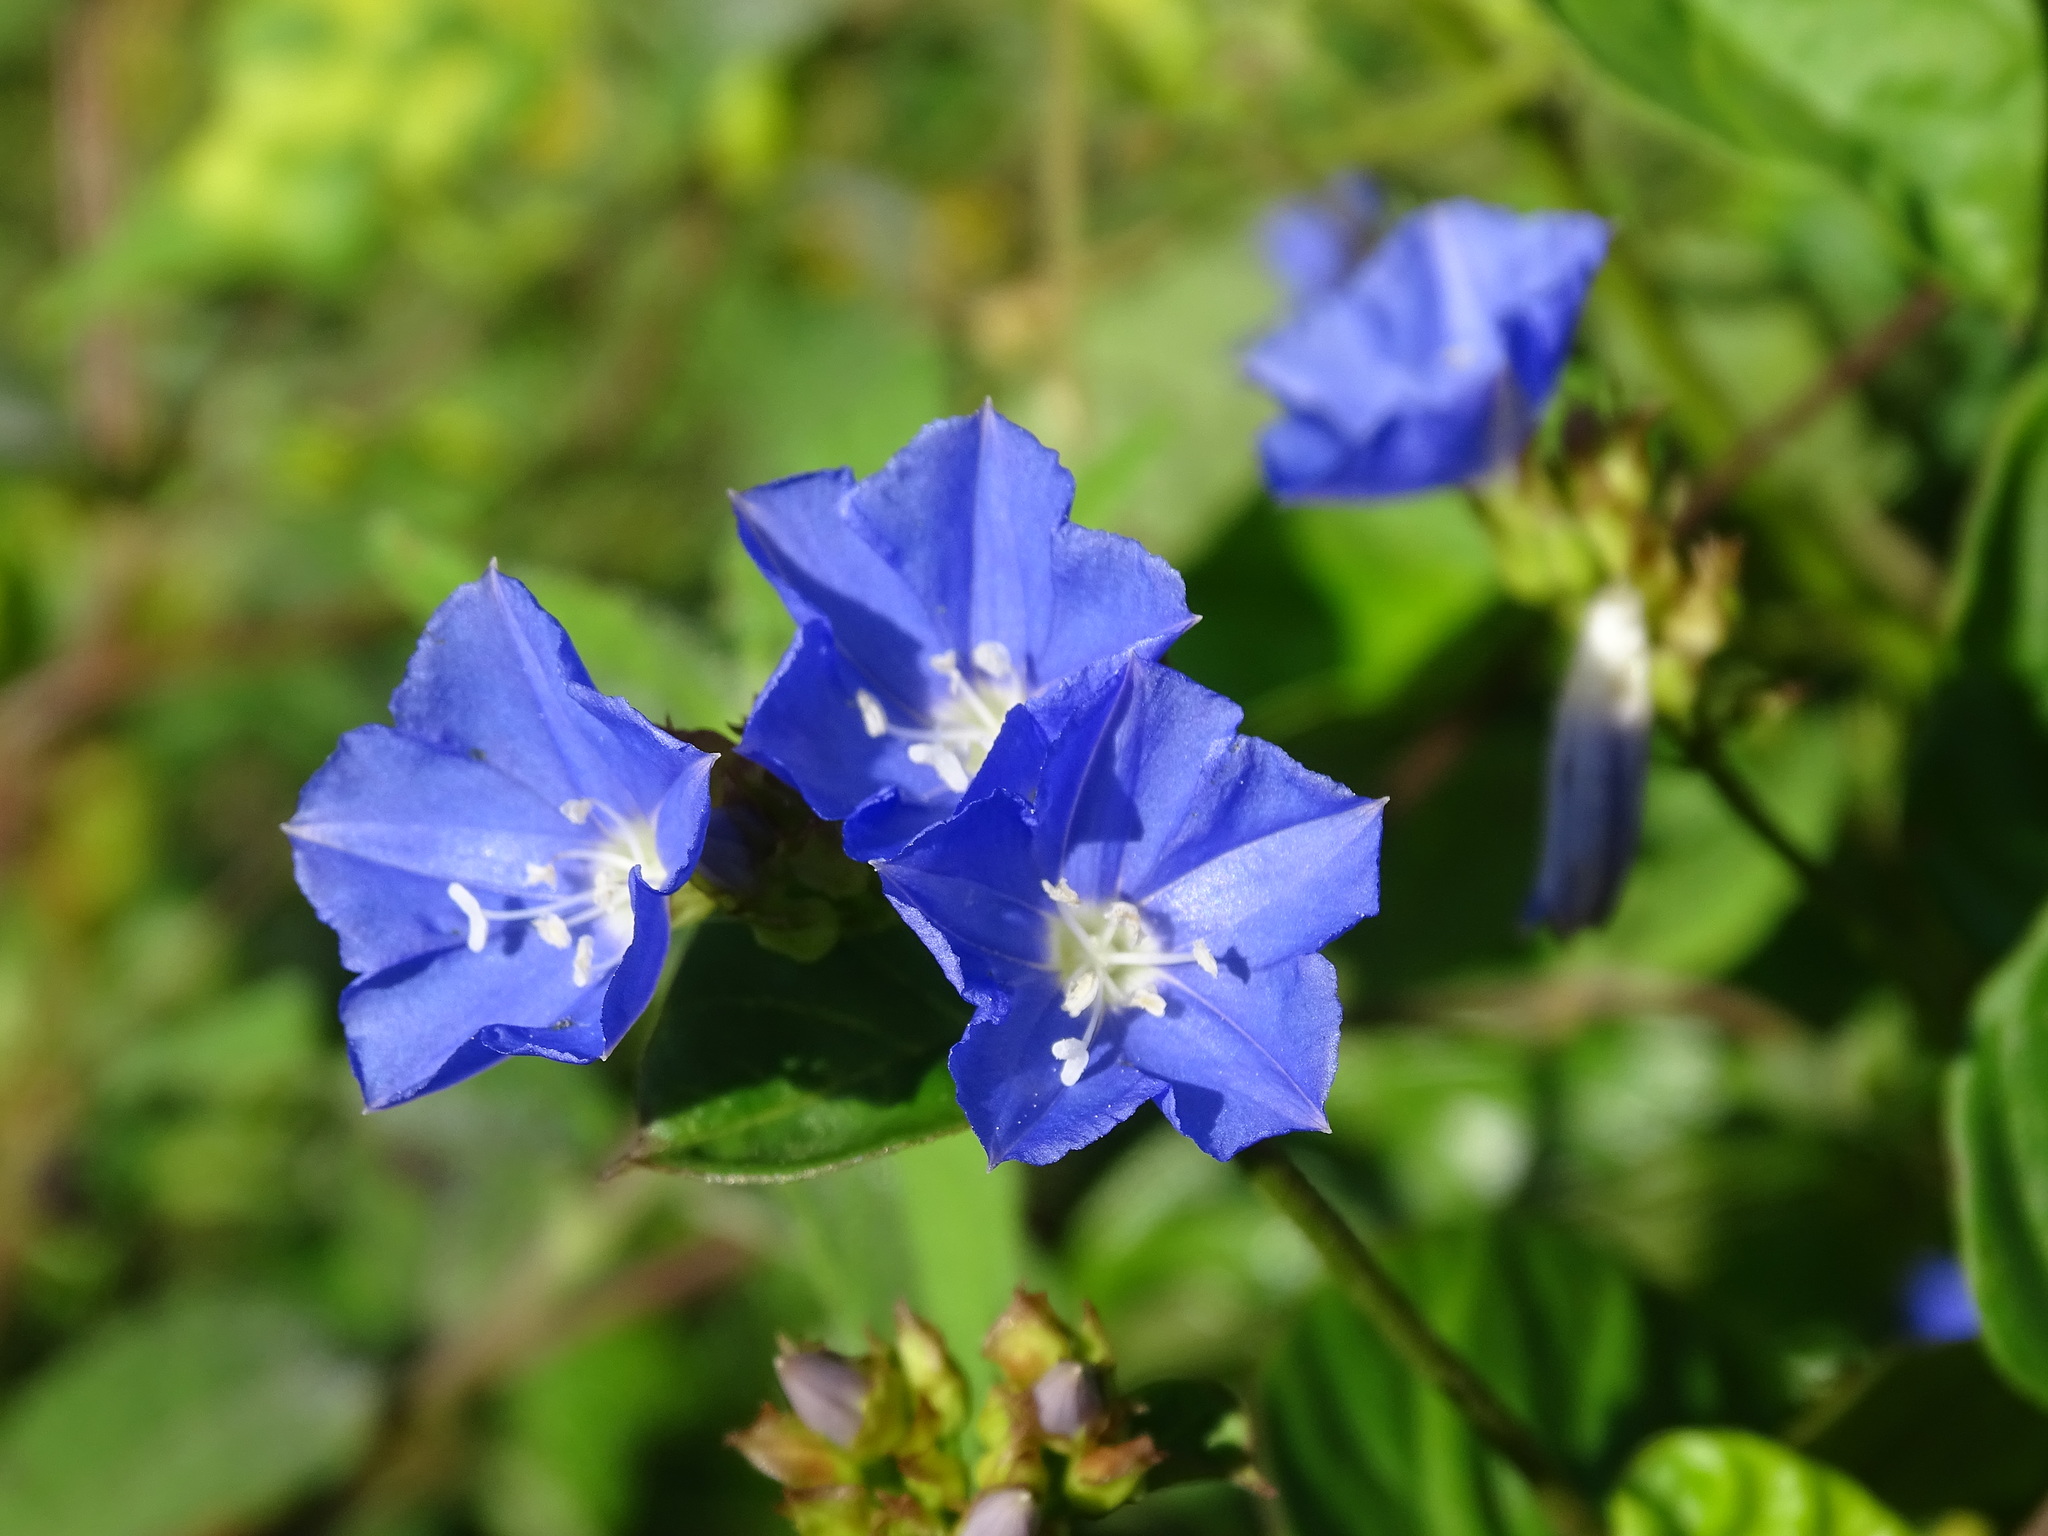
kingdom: Plantae
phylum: Tracheophyta
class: Magnoliopsida
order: Solanales
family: Convolvulaceae
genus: Jacquemontia
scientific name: Jacquemontia pentanthos
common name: Skyblue clustervine
